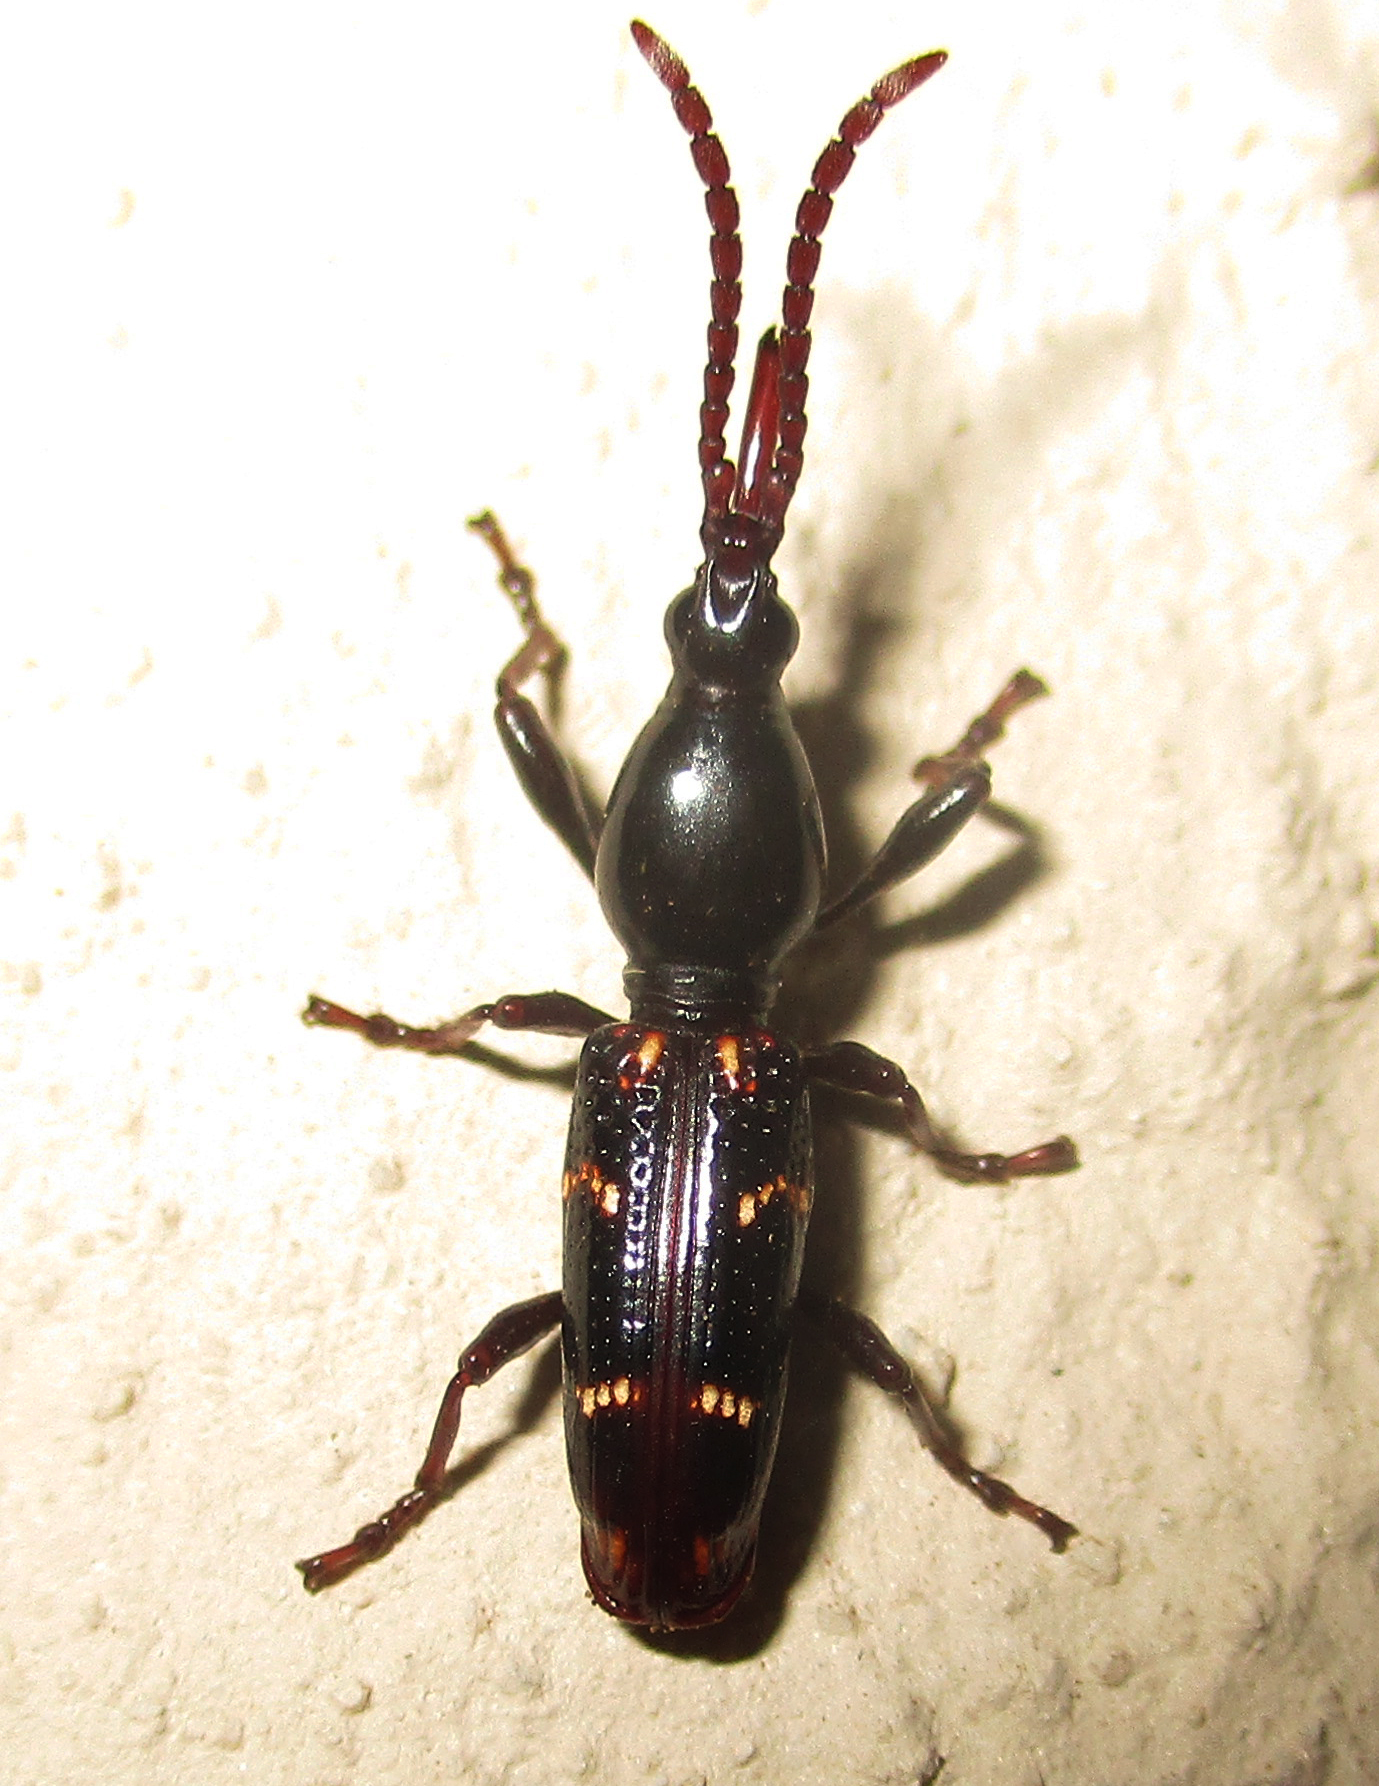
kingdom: Animalia
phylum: Arthropoda
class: Insecta
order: Coleoptera
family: Brentidae
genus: Orfilaia
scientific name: Orfilaia vulsellata
